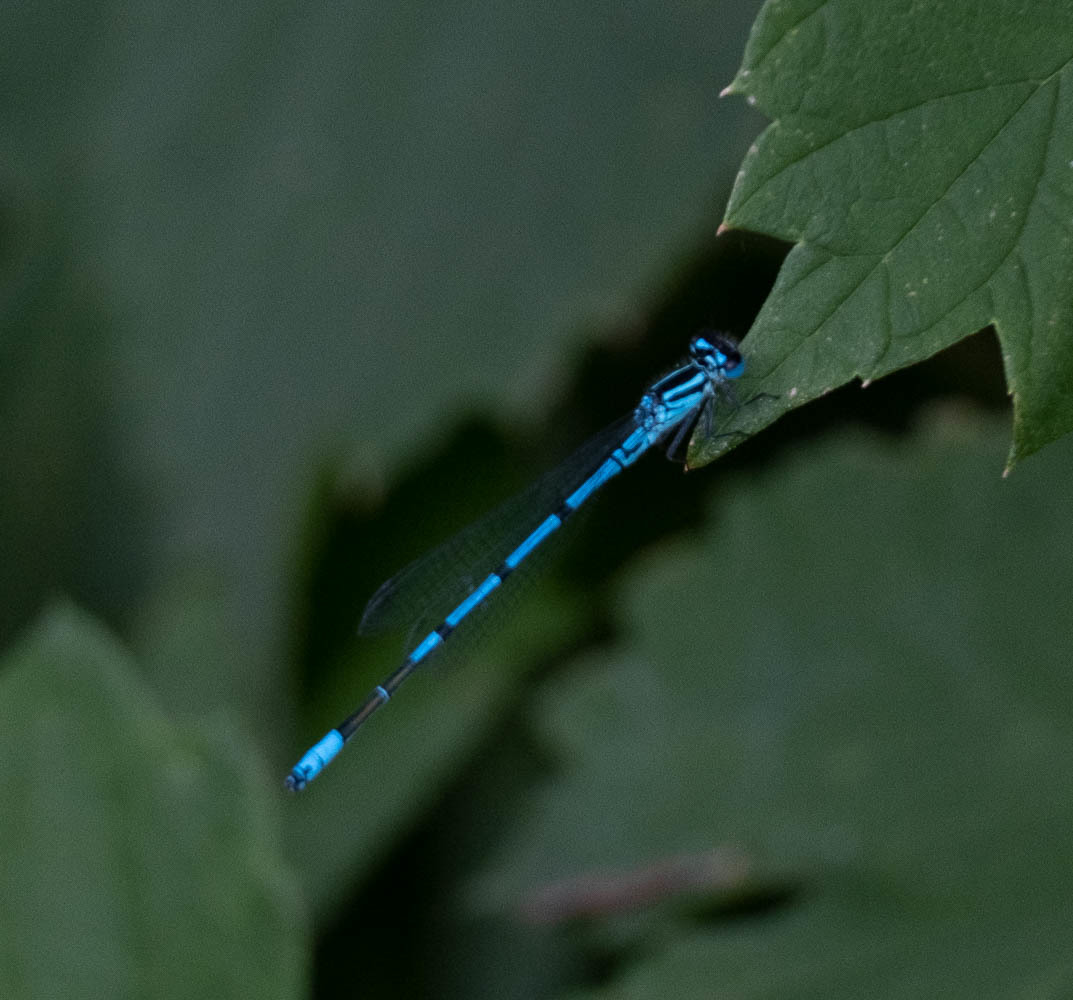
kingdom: Animalia
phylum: Arthropoda
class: Insecta
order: Odonata
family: Coenagrionidae
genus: Coenagrion
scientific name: Coenagrion puella
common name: Azure damselfly
